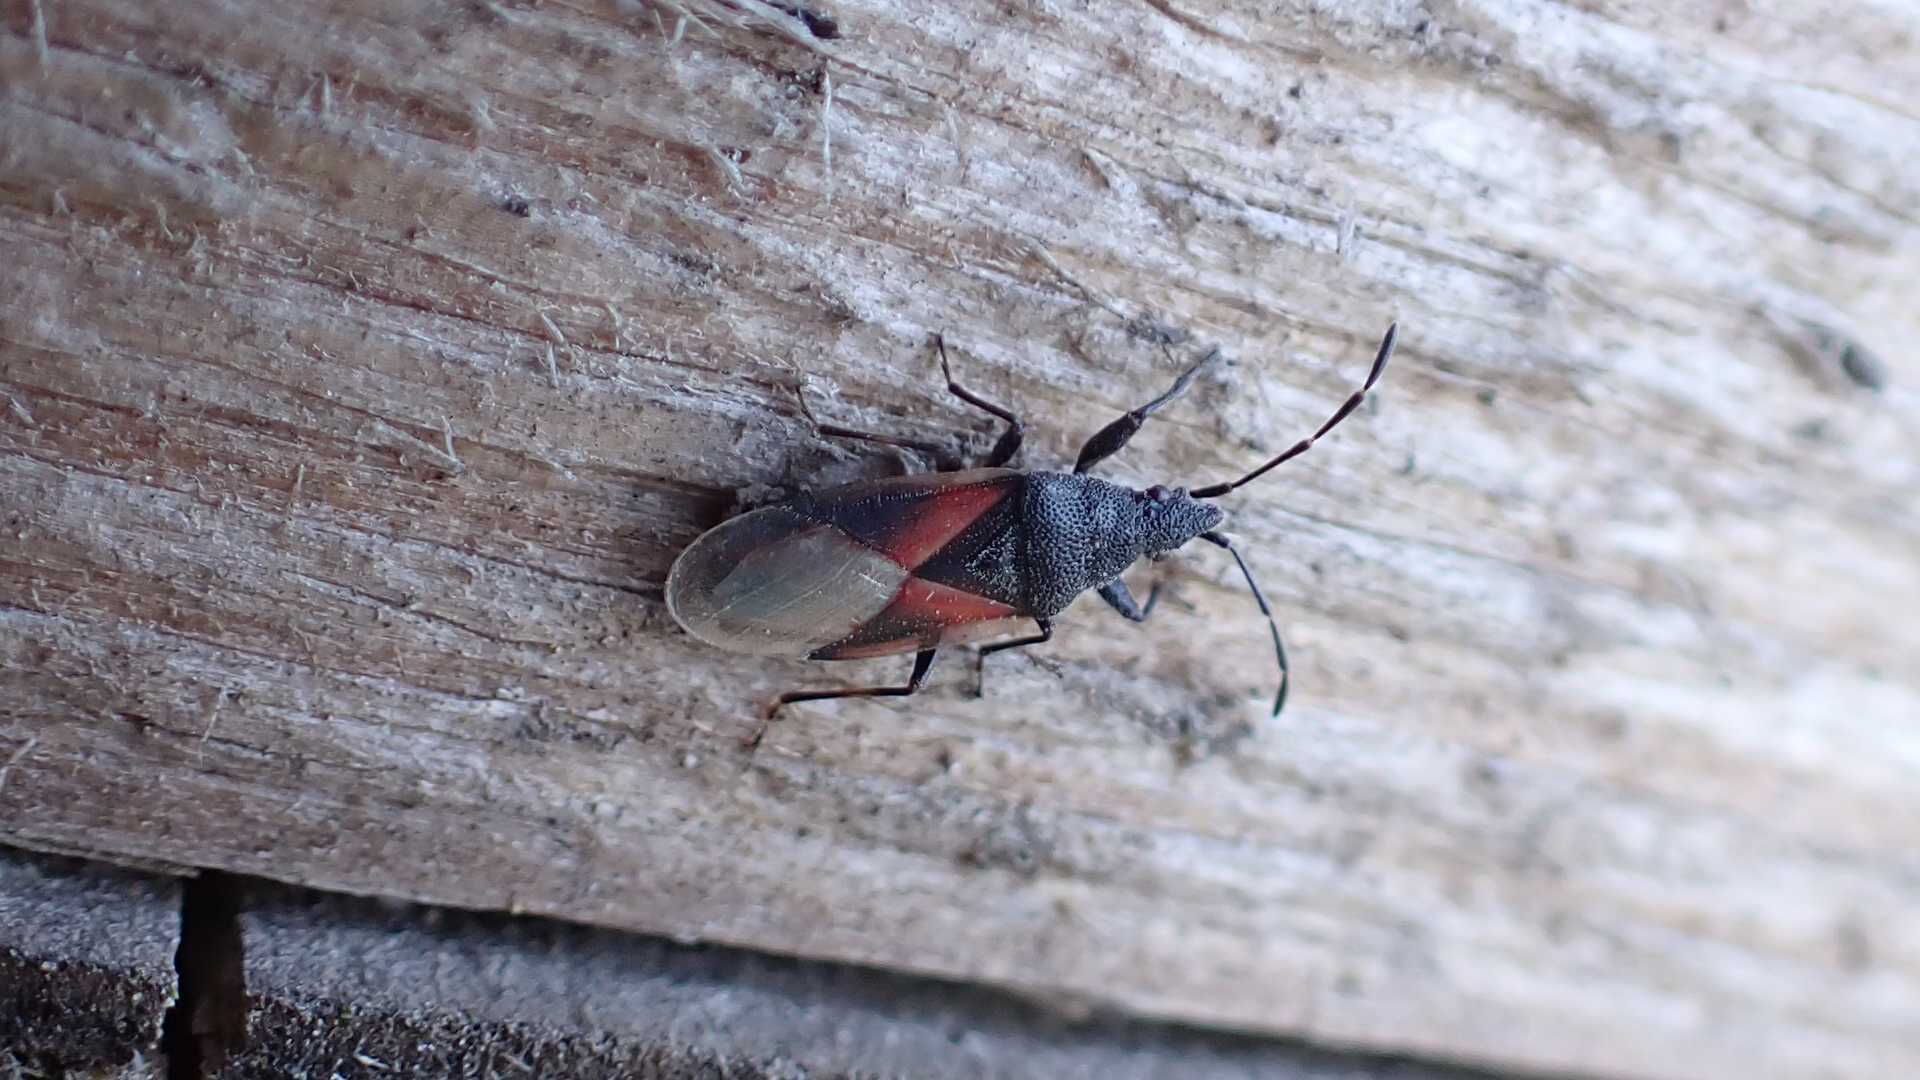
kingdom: Animalia
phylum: Arthropoda
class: Insecta
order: Hemiptera
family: Oxycarenidae
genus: Oxycarenus
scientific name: Oxycarenus lavaterae
